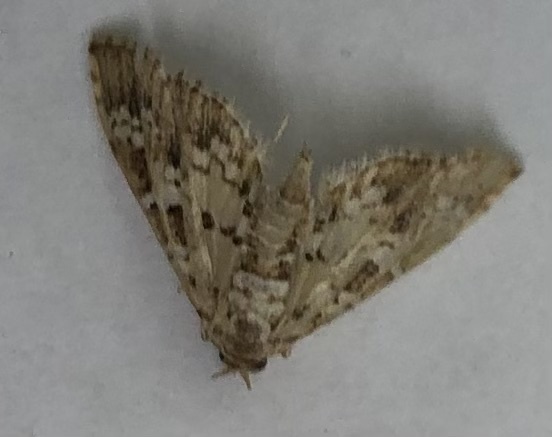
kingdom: Animalia
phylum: Arthropoda
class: Insecta
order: Lepidoptera
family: Crambidae
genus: Samea
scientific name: Samea multiplicalis
